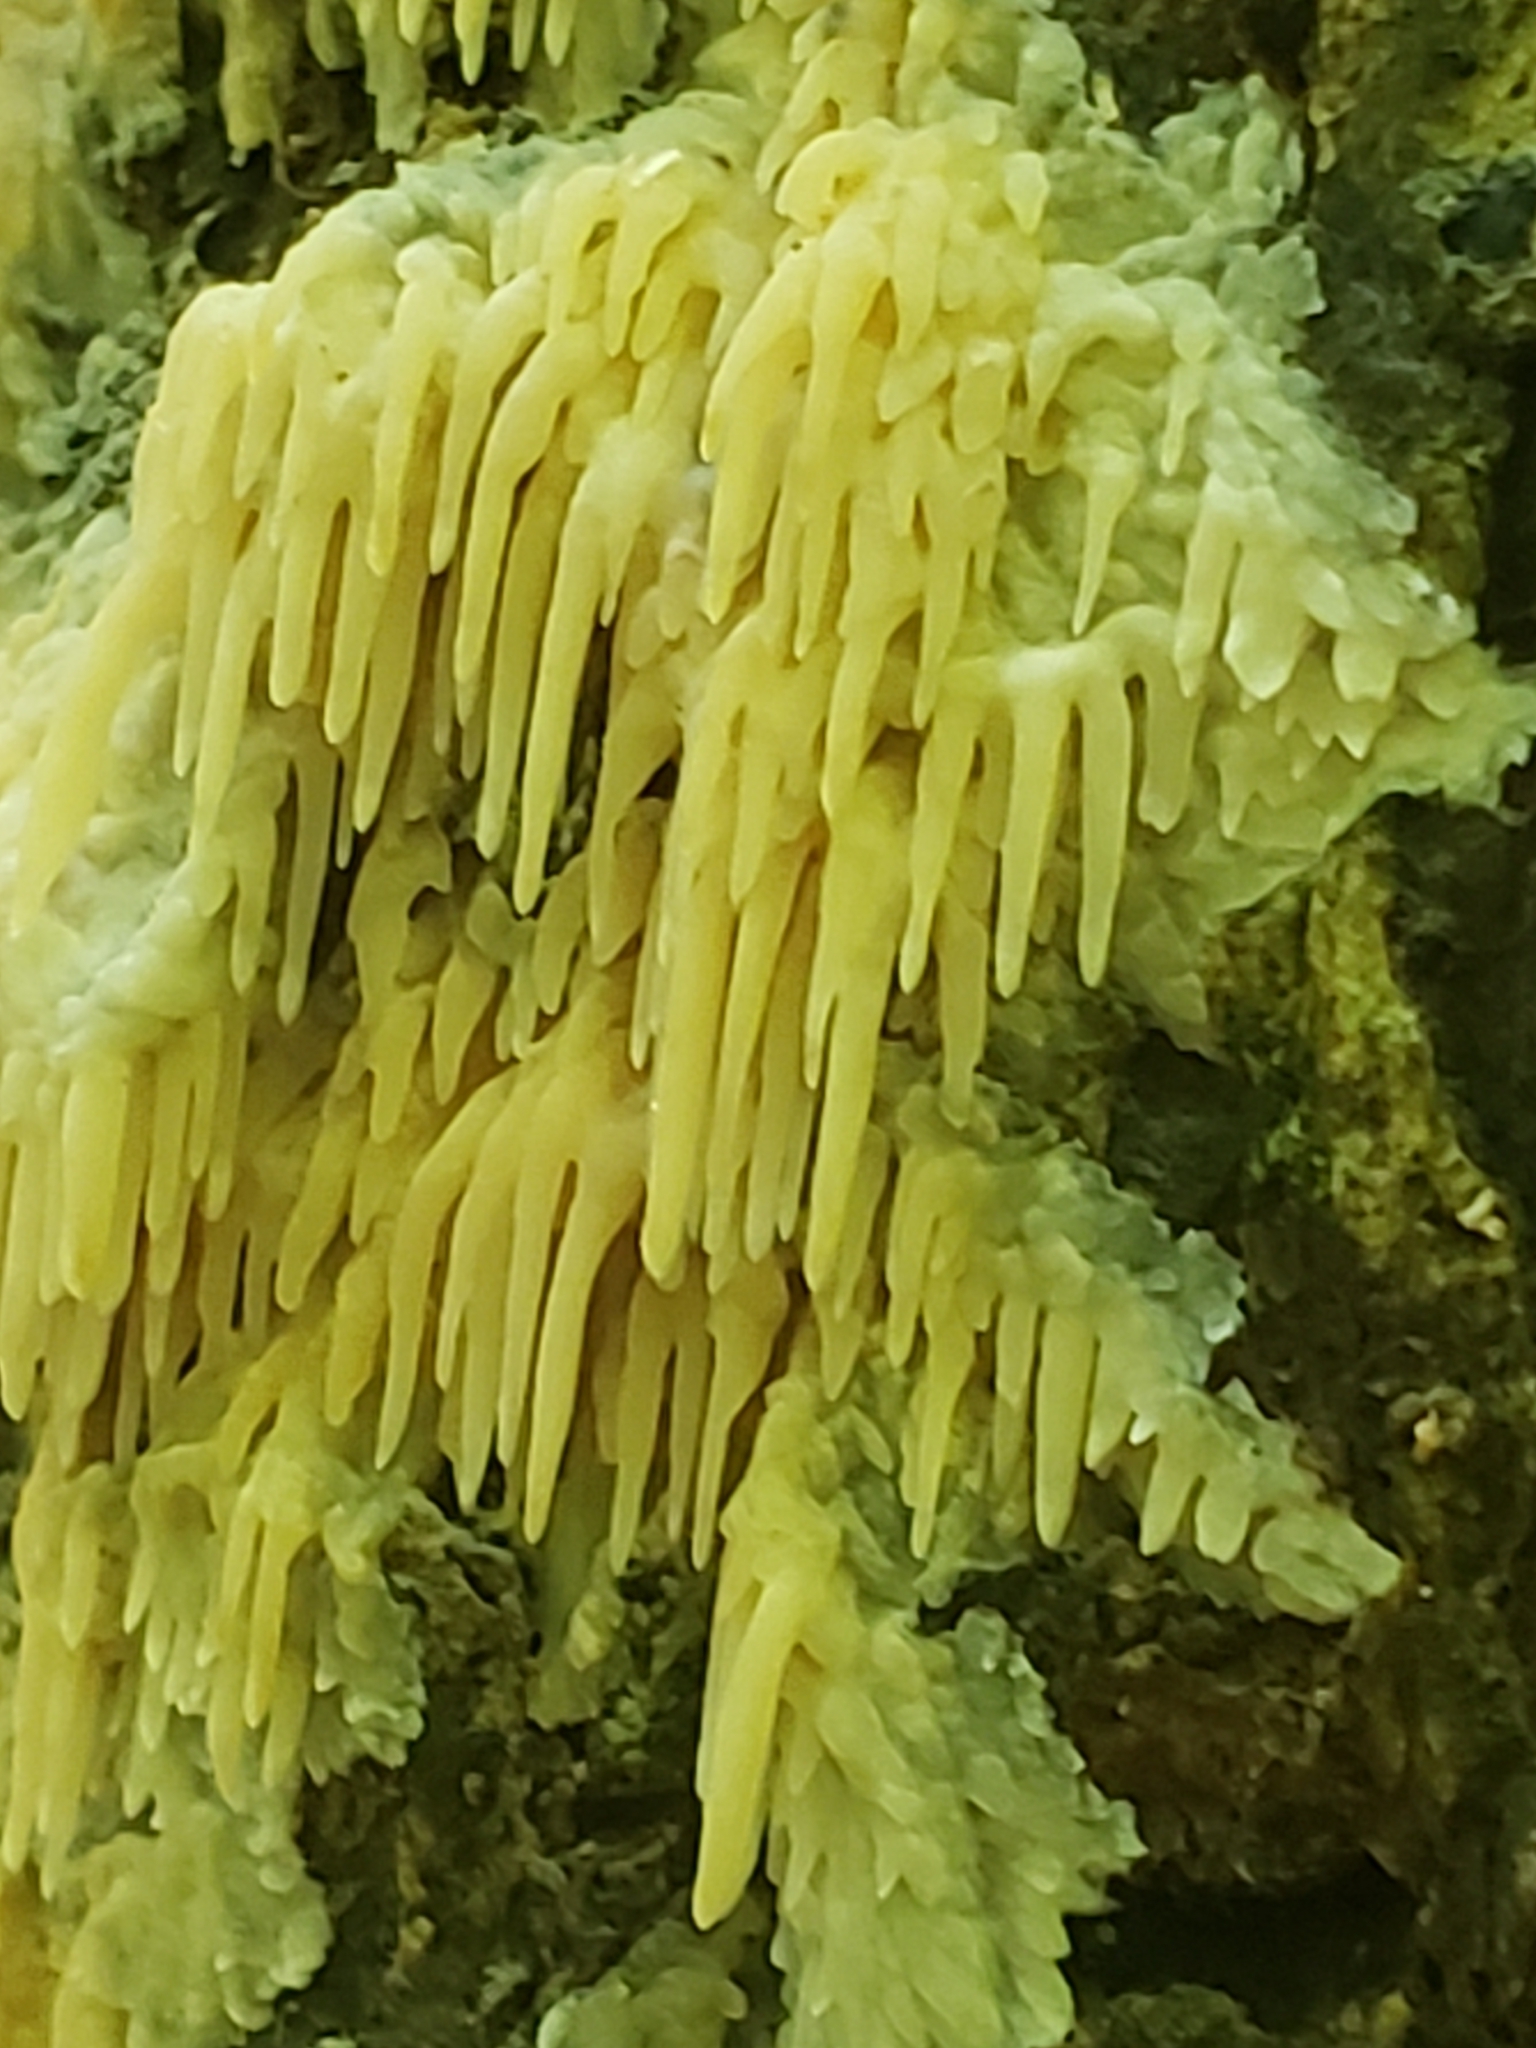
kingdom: Fungi
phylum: Basidiomycota
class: Agaricomycetes
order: Agaricales
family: Radulomycetaceae
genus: Radulomyces
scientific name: Radulomyces copelandii
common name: Asian beauty
